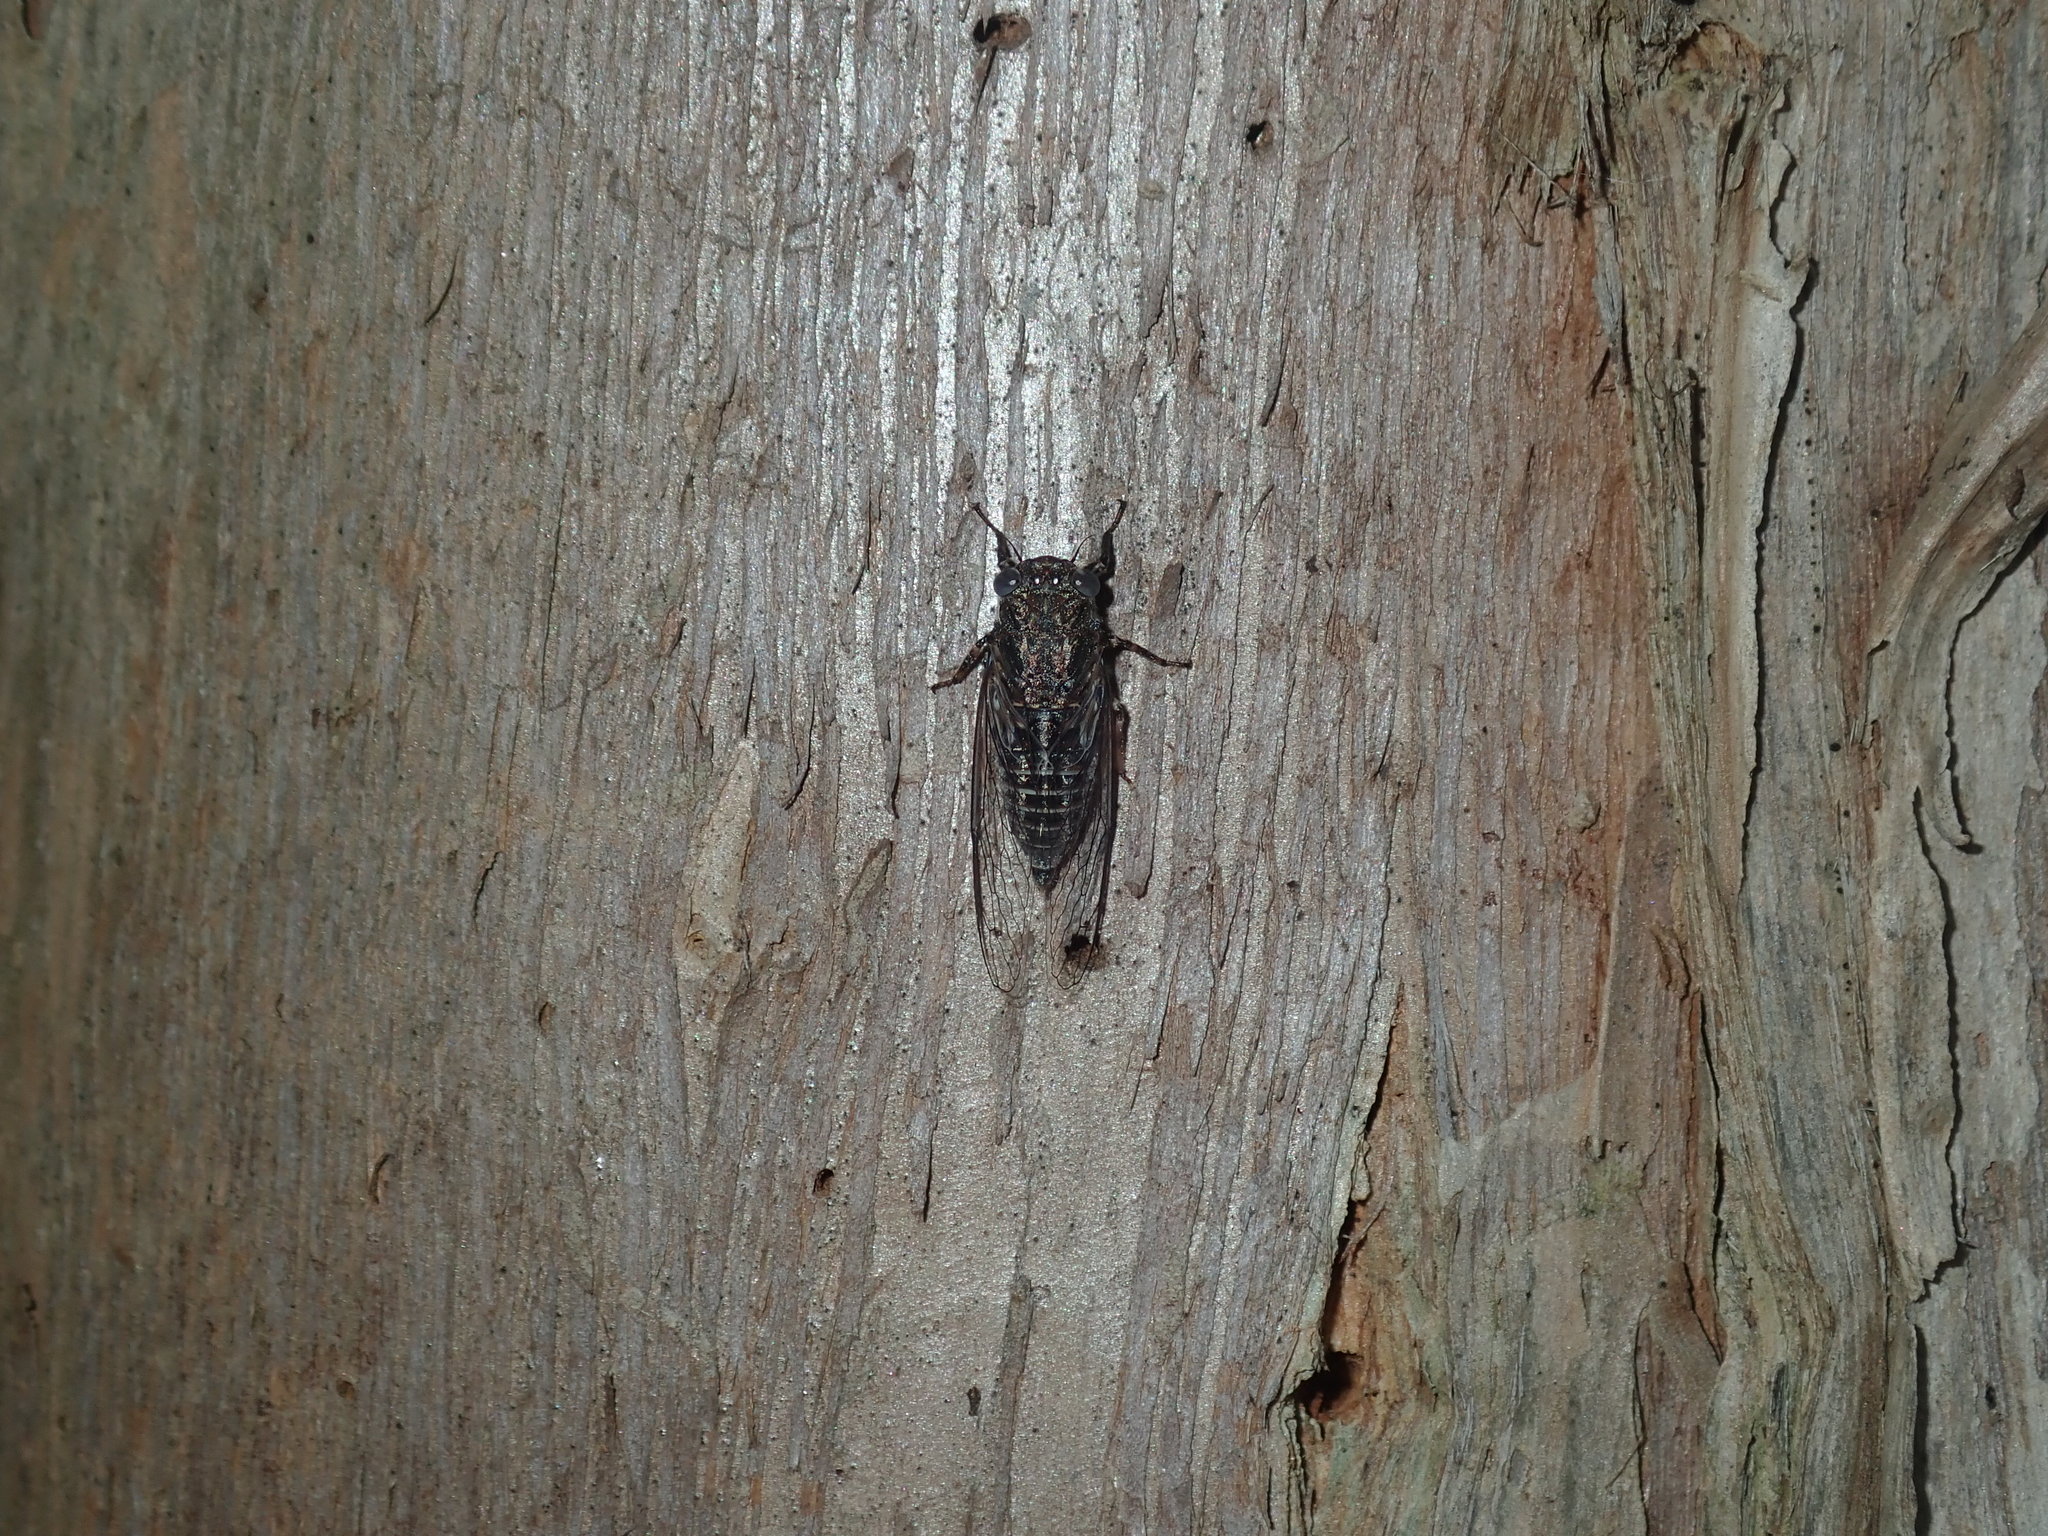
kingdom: Animalia
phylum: Arthropoda
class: Insecta
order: Hemiptera
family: Cicadidae
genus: Myopsalta
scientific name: Myopsalta mackinlayi
